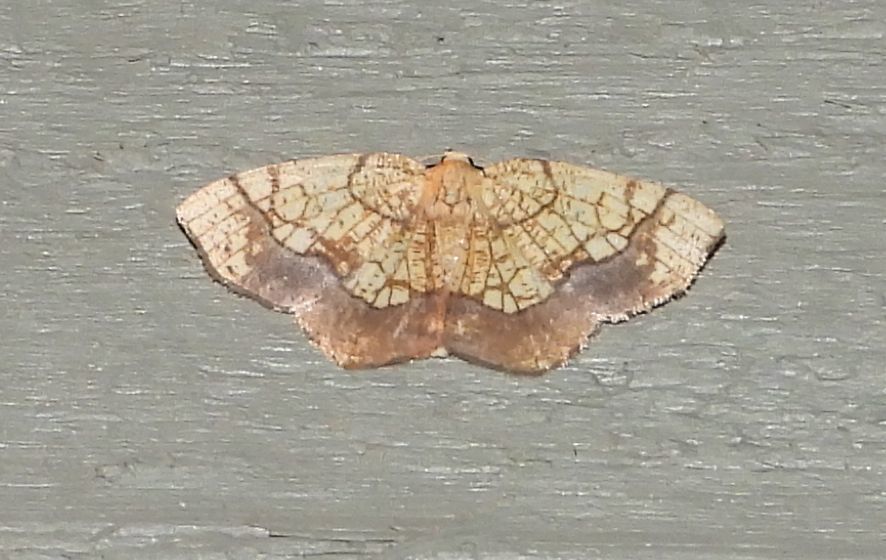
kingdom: Animalia
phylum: Arthropoda
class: Insecta
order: Lepidoptera
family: Geometridae
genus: Nematocampa
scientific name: Nematocampa resistaria
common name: Horned spanworm moth
